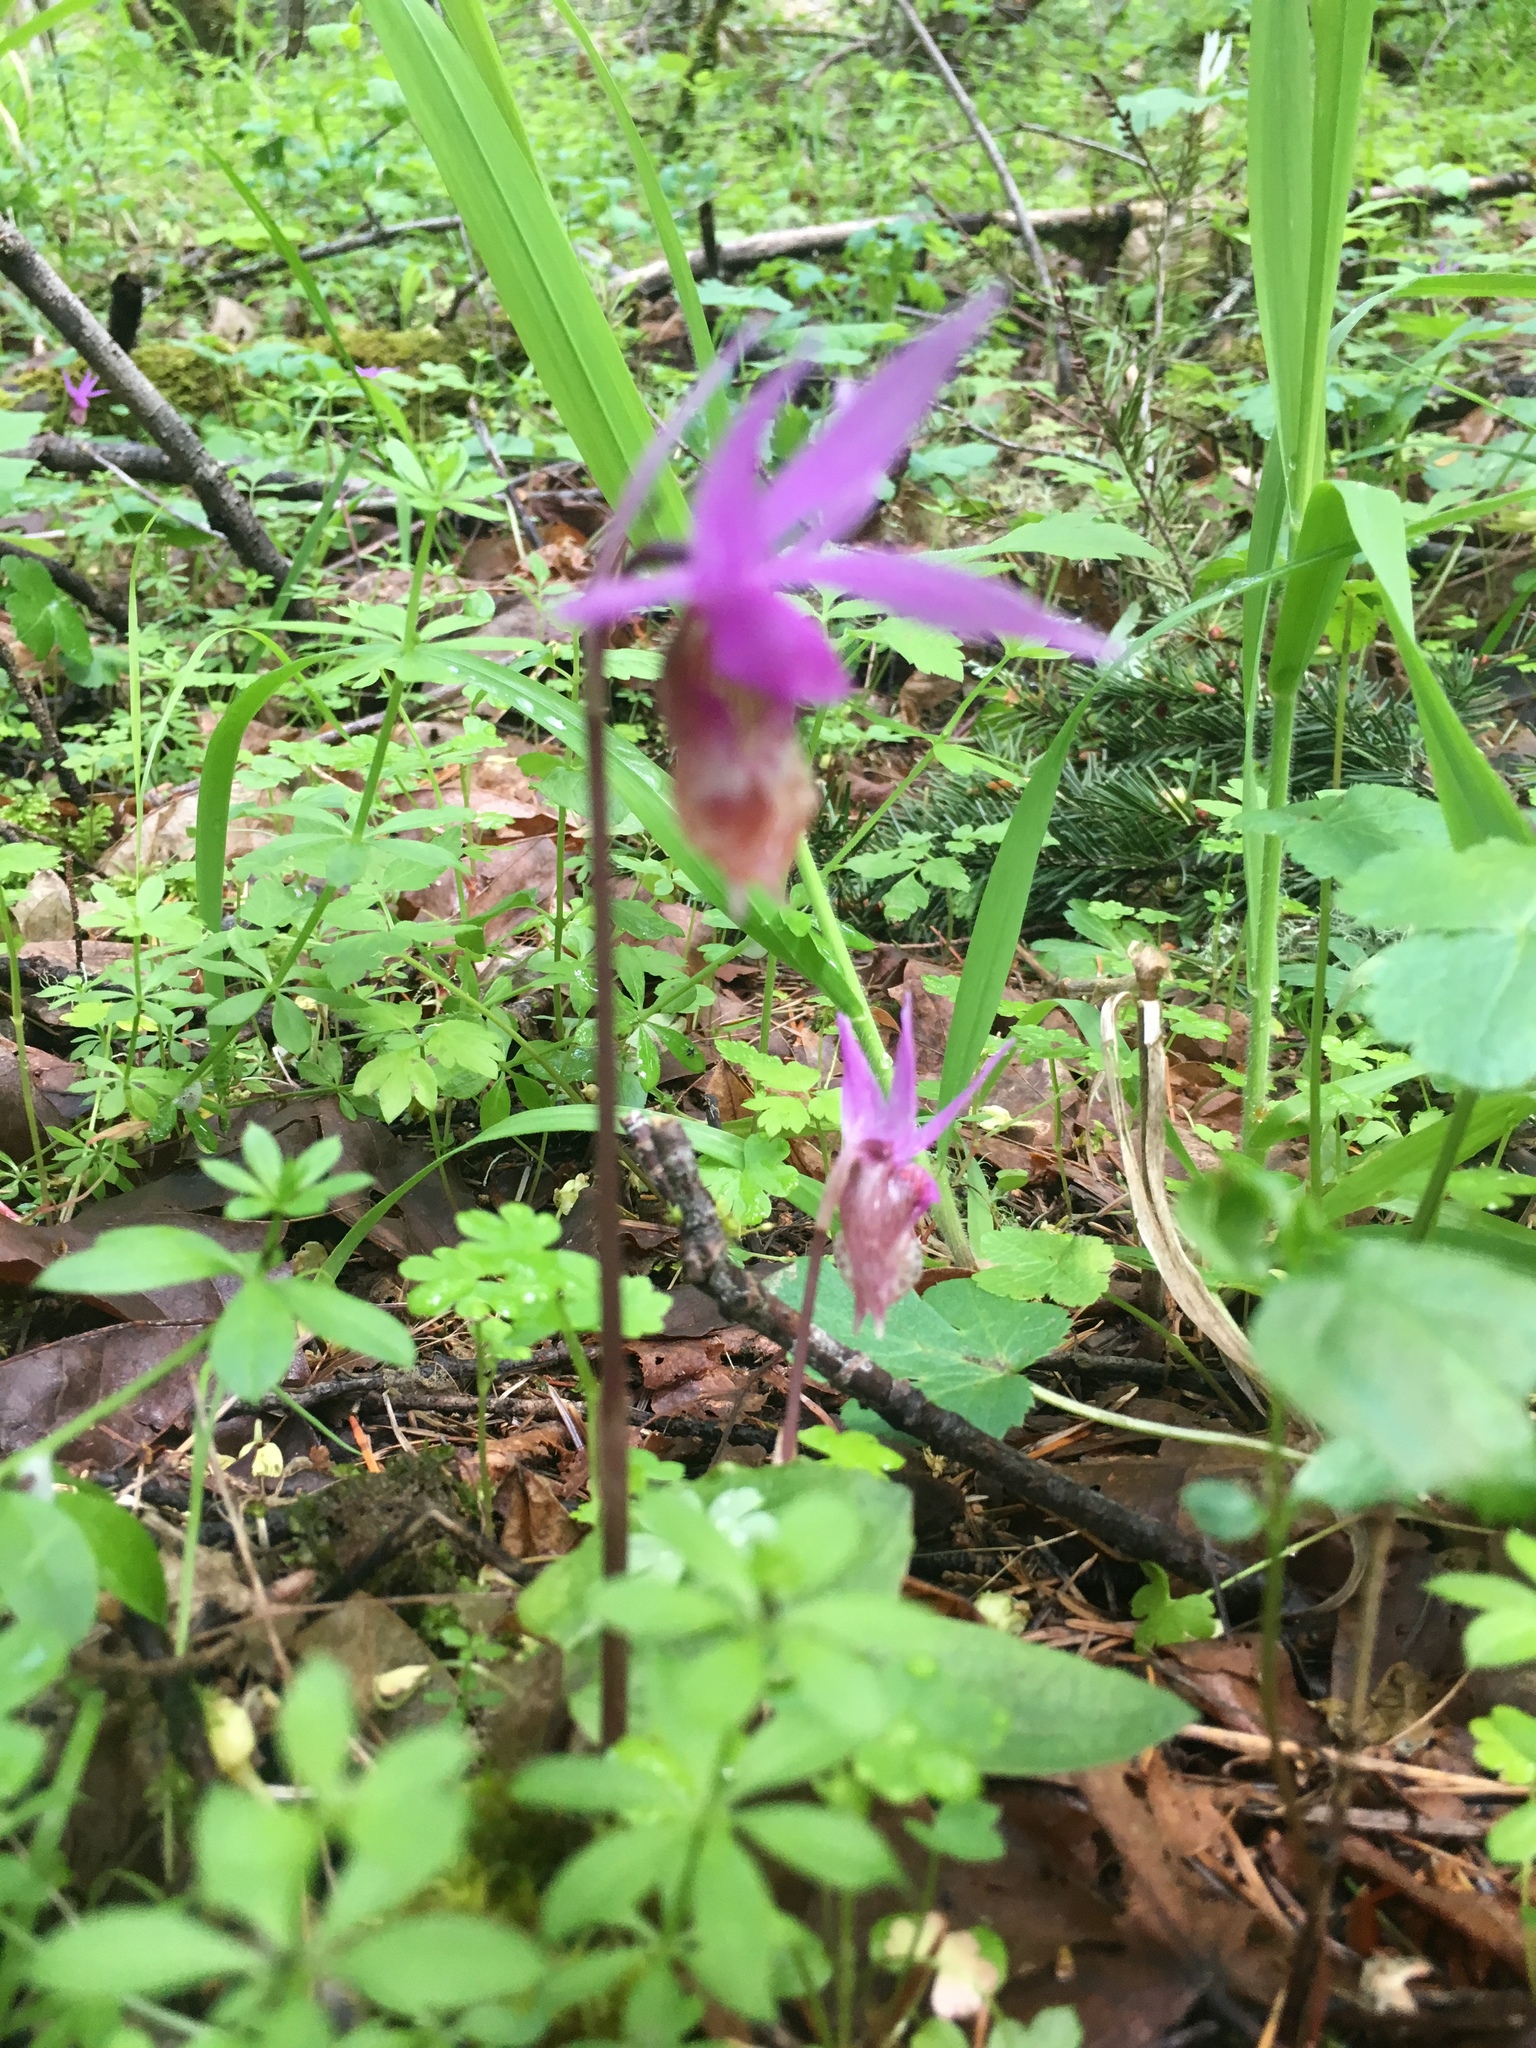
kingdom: Plantae
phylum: Tracheophyta
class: Liliopsida
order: Asparagales
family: Orchidaceae
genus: Calypso
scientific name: Calypso bulbosa
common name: Calypso
